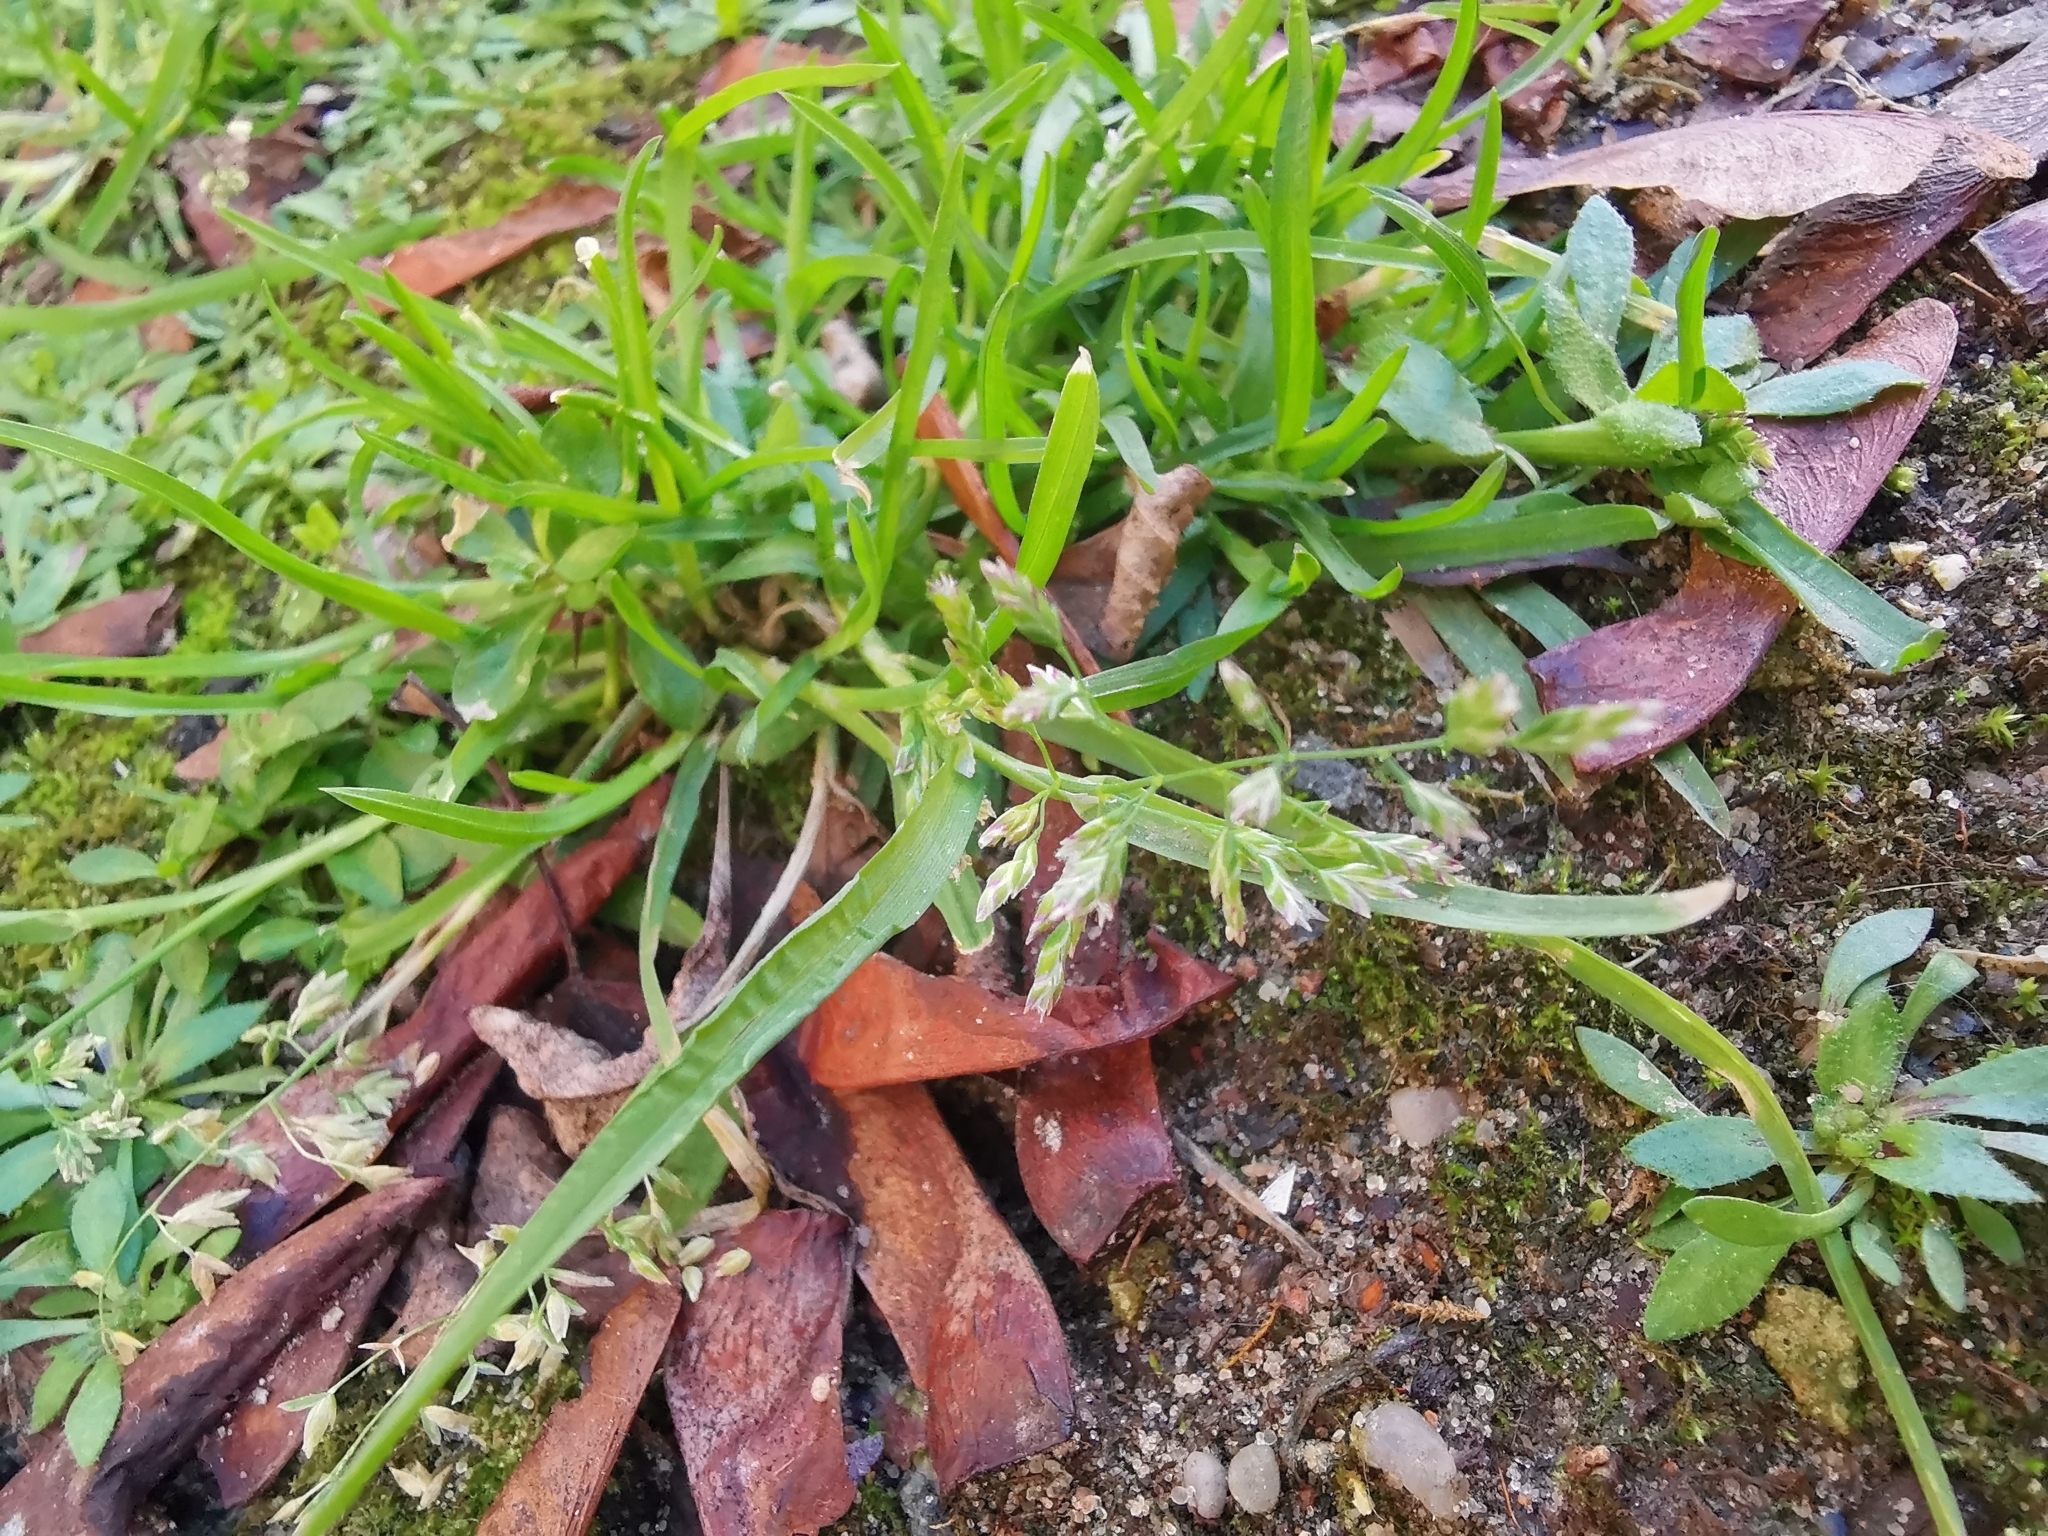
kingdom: Plantae
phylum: Tracheophyta
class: Liliopsida
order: Poales
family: Poaceae
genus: Poa
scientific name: Poa annua
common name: Annual bluegrass
